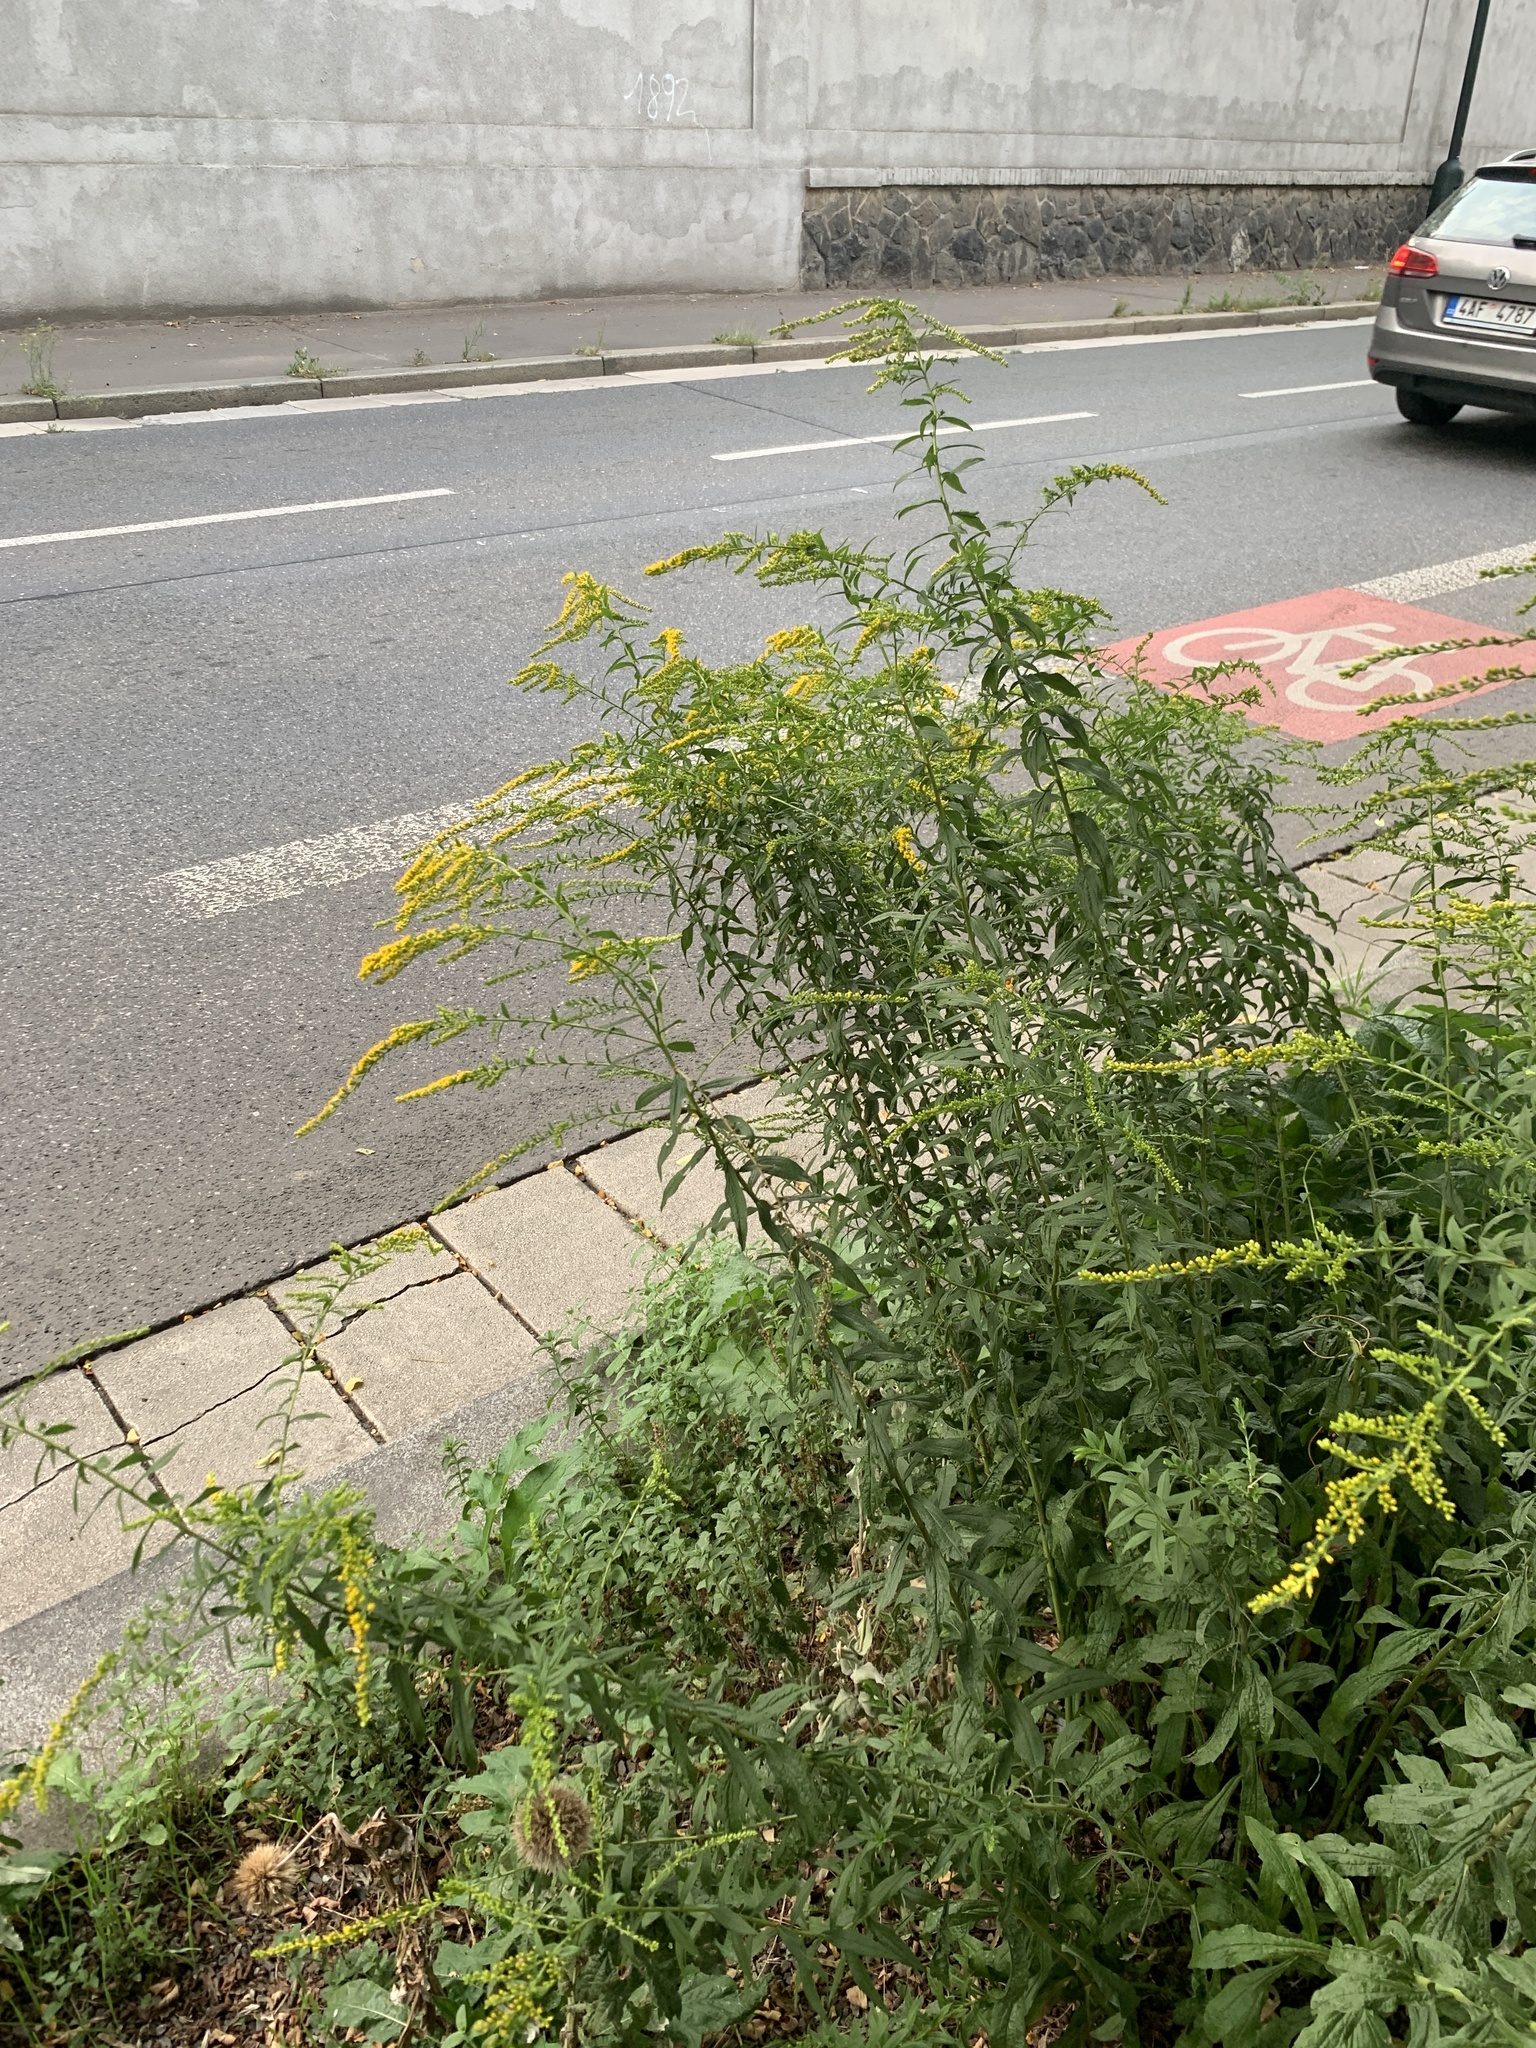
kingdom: Plantae
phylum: Tracheophyta
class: Magnoliopsida
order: Asterales
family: Asteraceae
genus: Solidago
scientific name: Solidago canadensis
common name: Canada goldenrod
